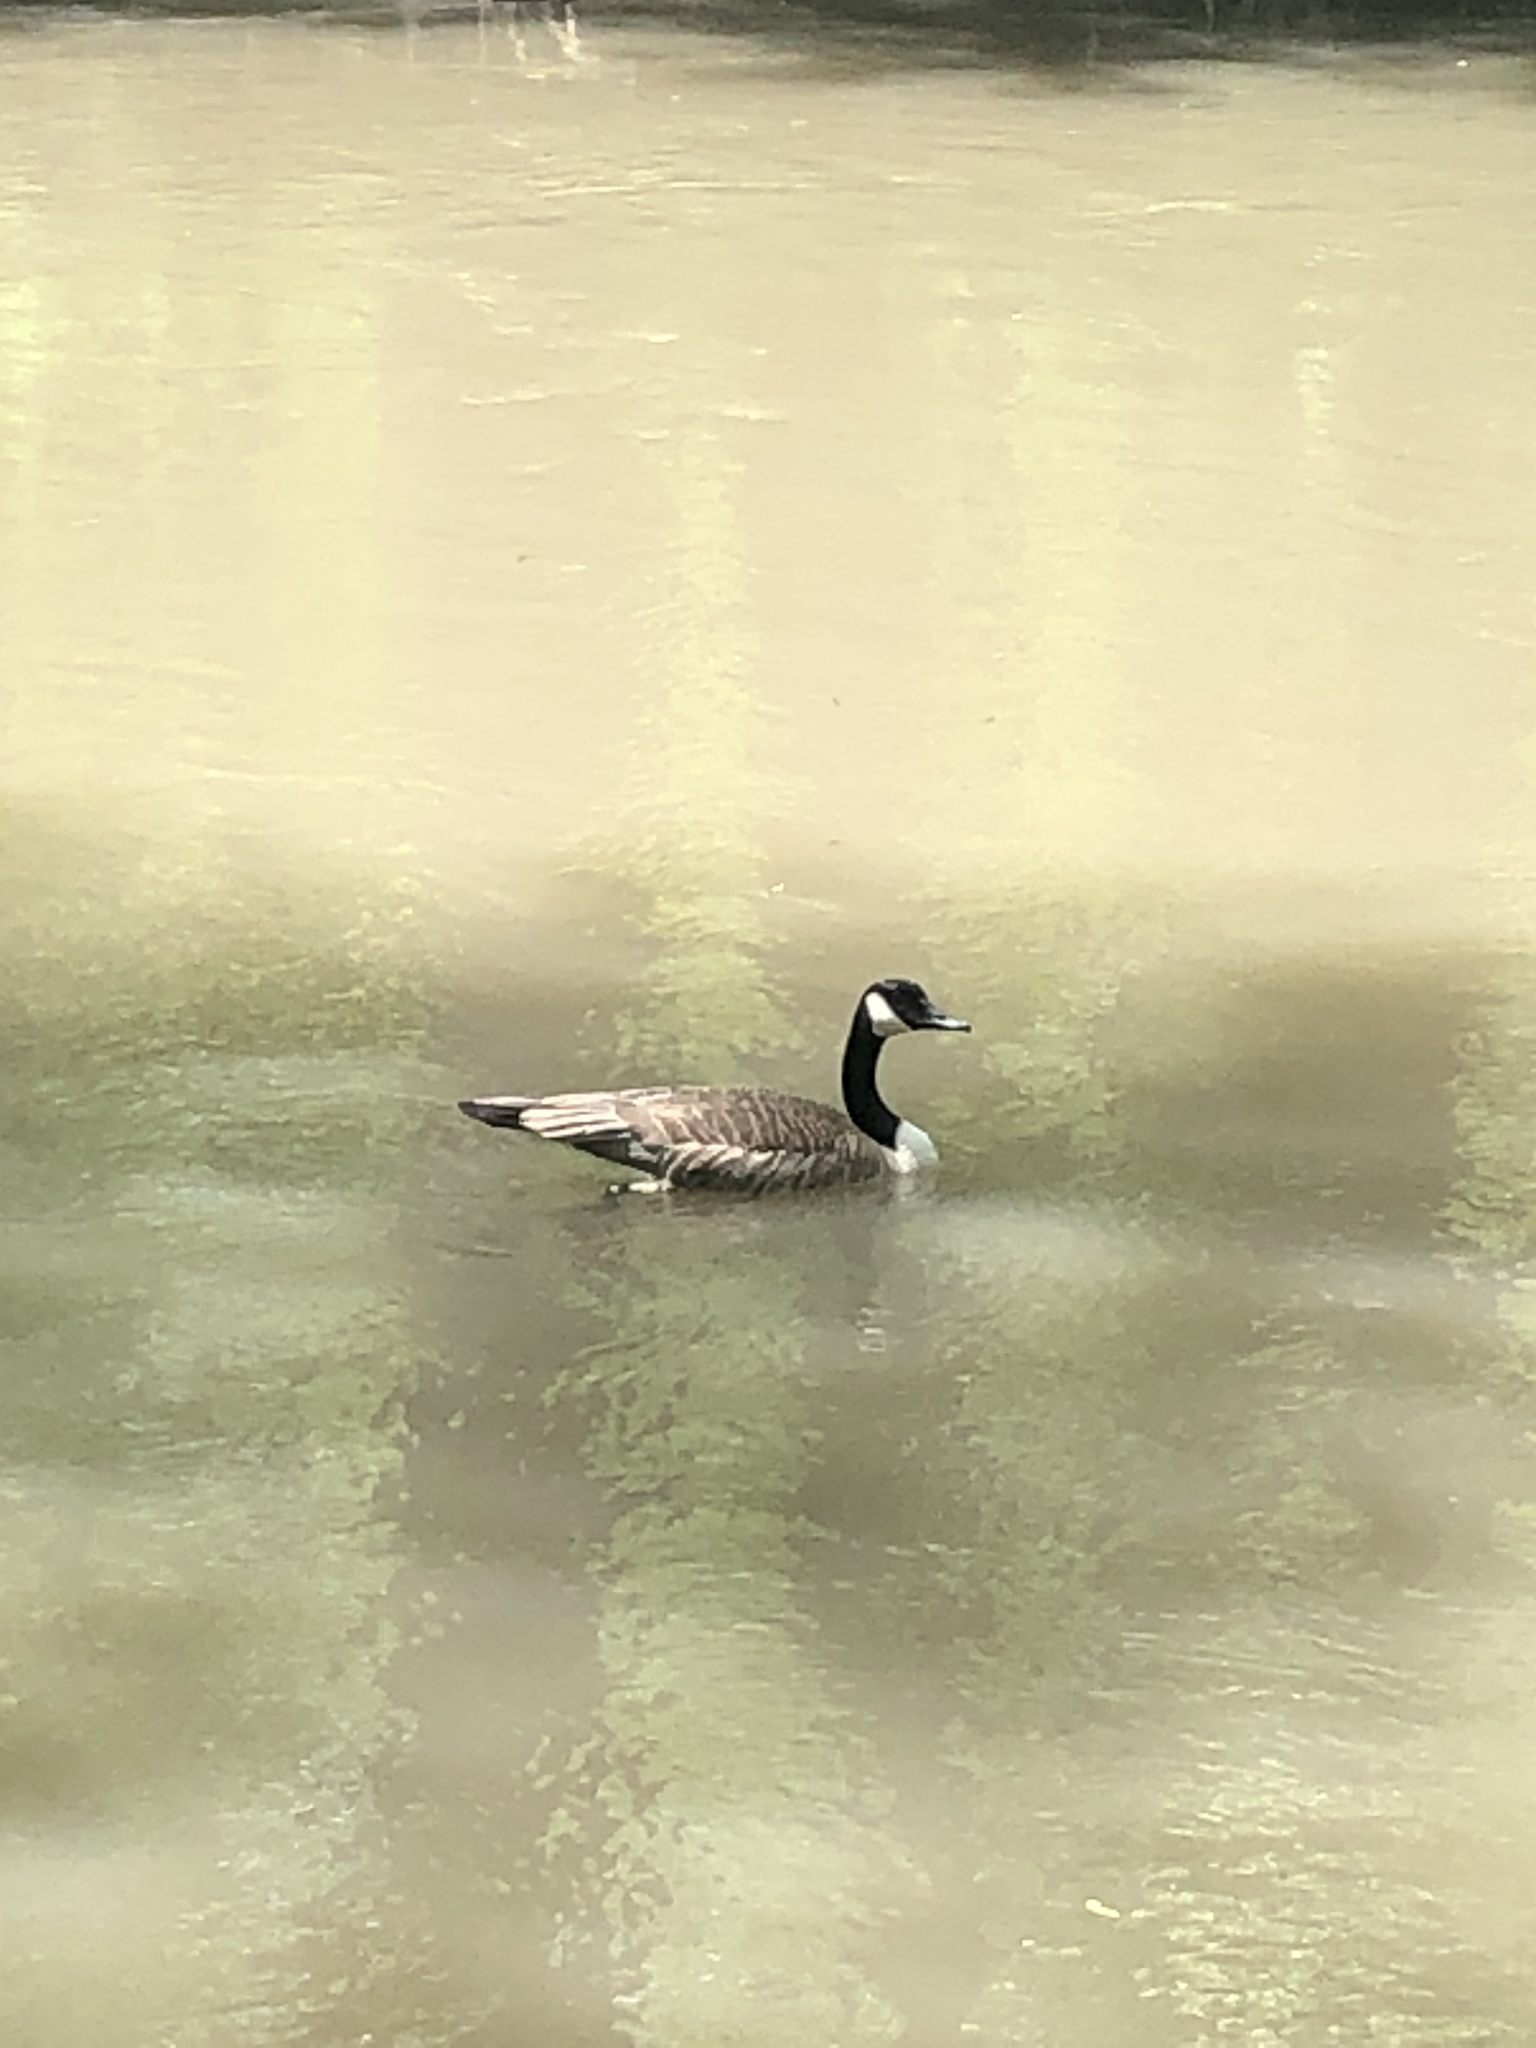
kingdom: Animalia
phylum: Chordata
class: Aves
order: Anseriformes
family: Anatidae
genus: Branta
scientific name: Branta canadensis
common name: Canada goose
